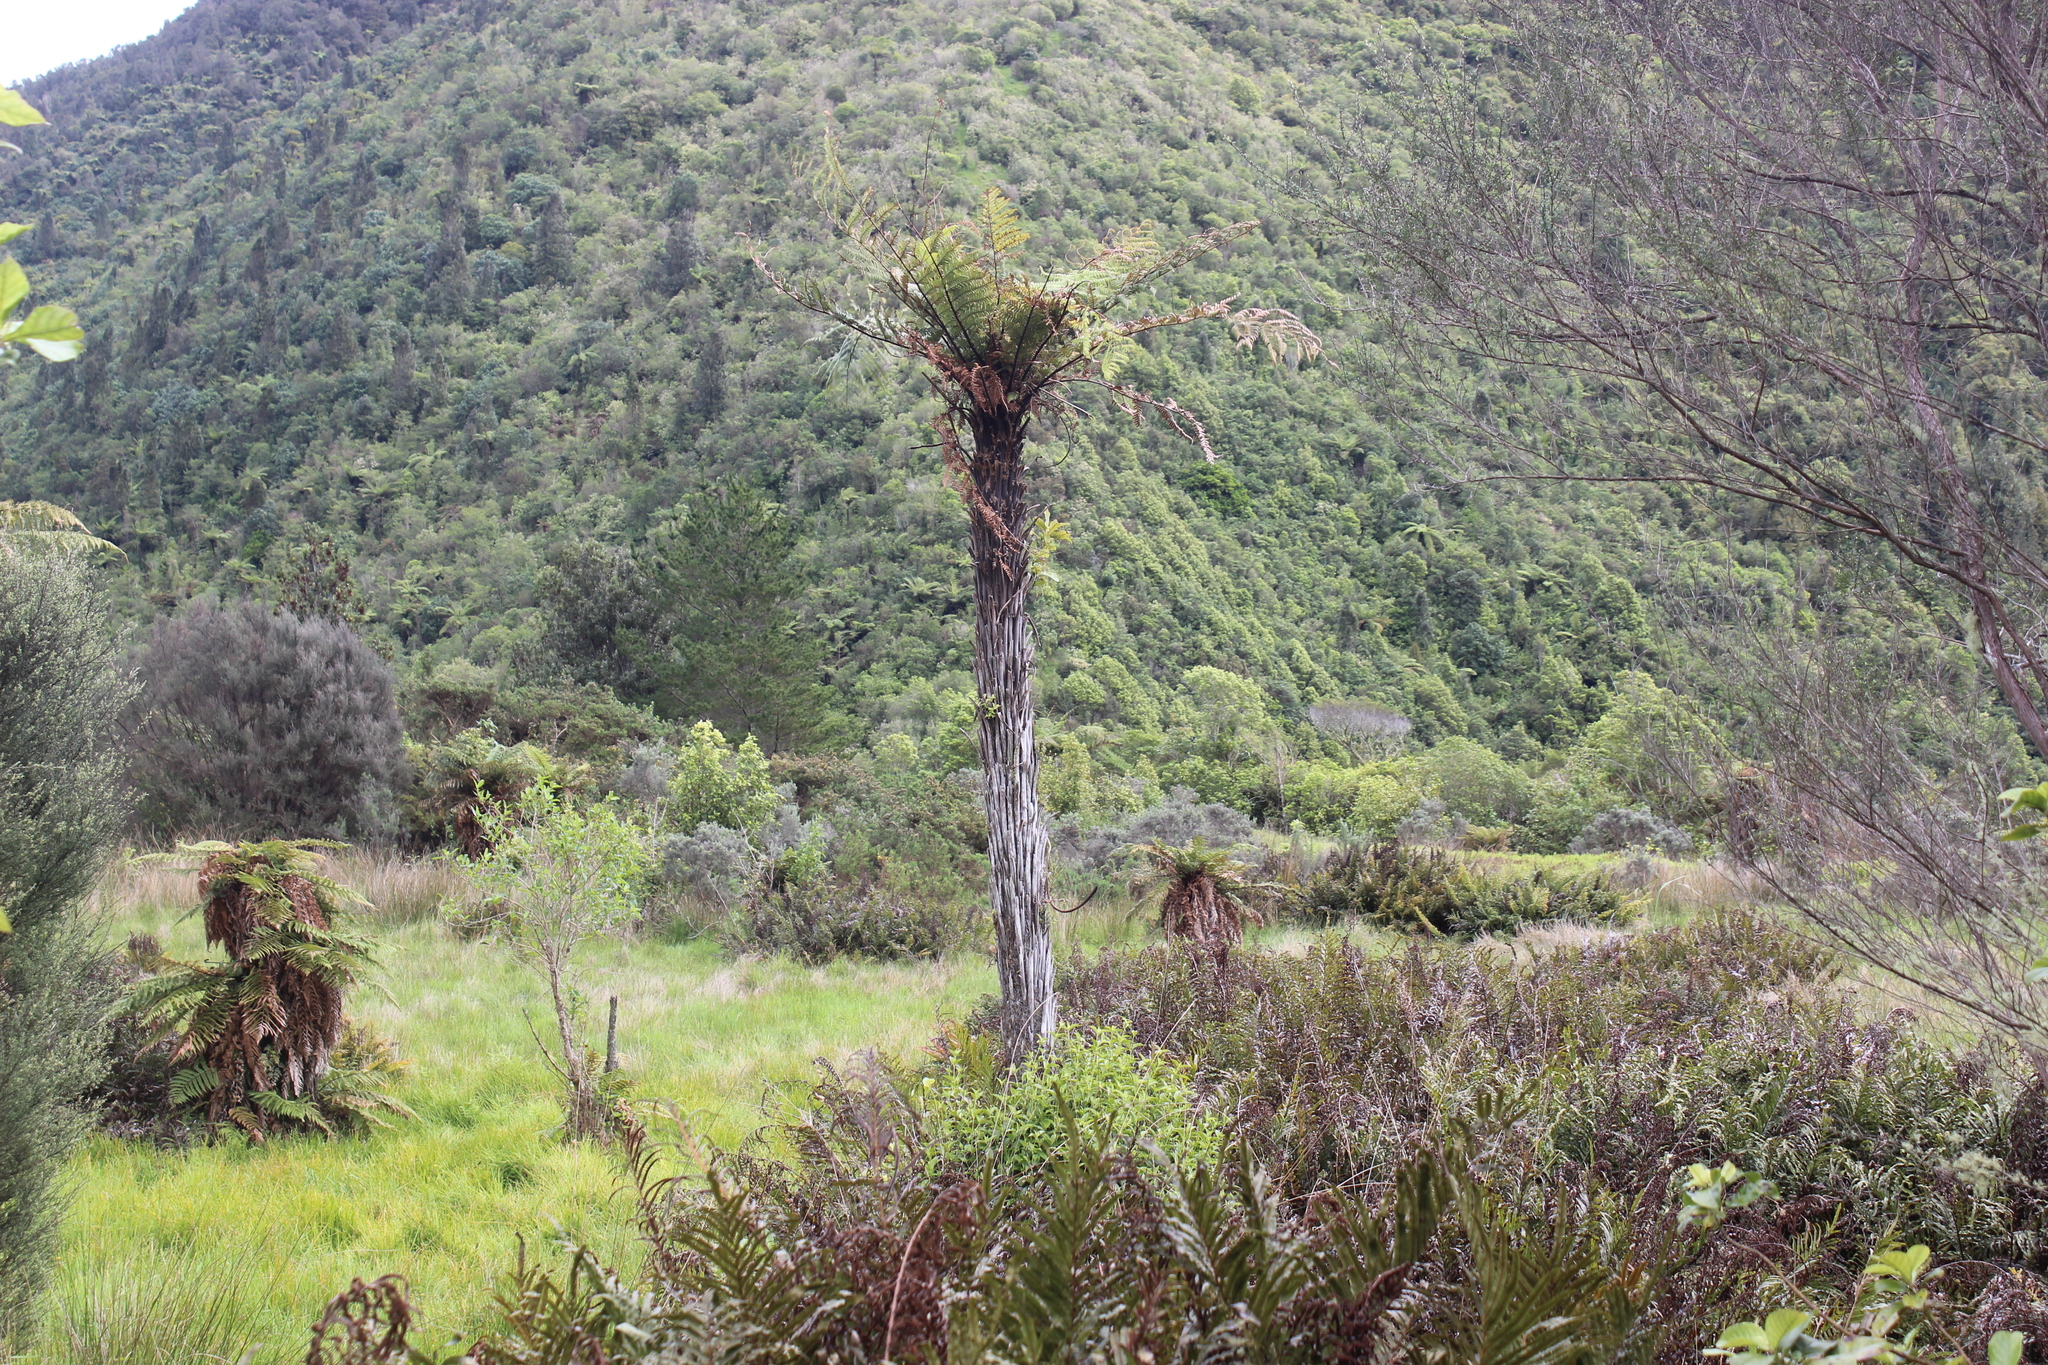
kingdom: Plantae
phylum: Tracheophyta
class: Polypodiopsida
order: Cyatheales
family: Dicksoniaceae
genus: Dicksonia
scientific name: Dicksonia squarrosa
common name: Hard treefern
